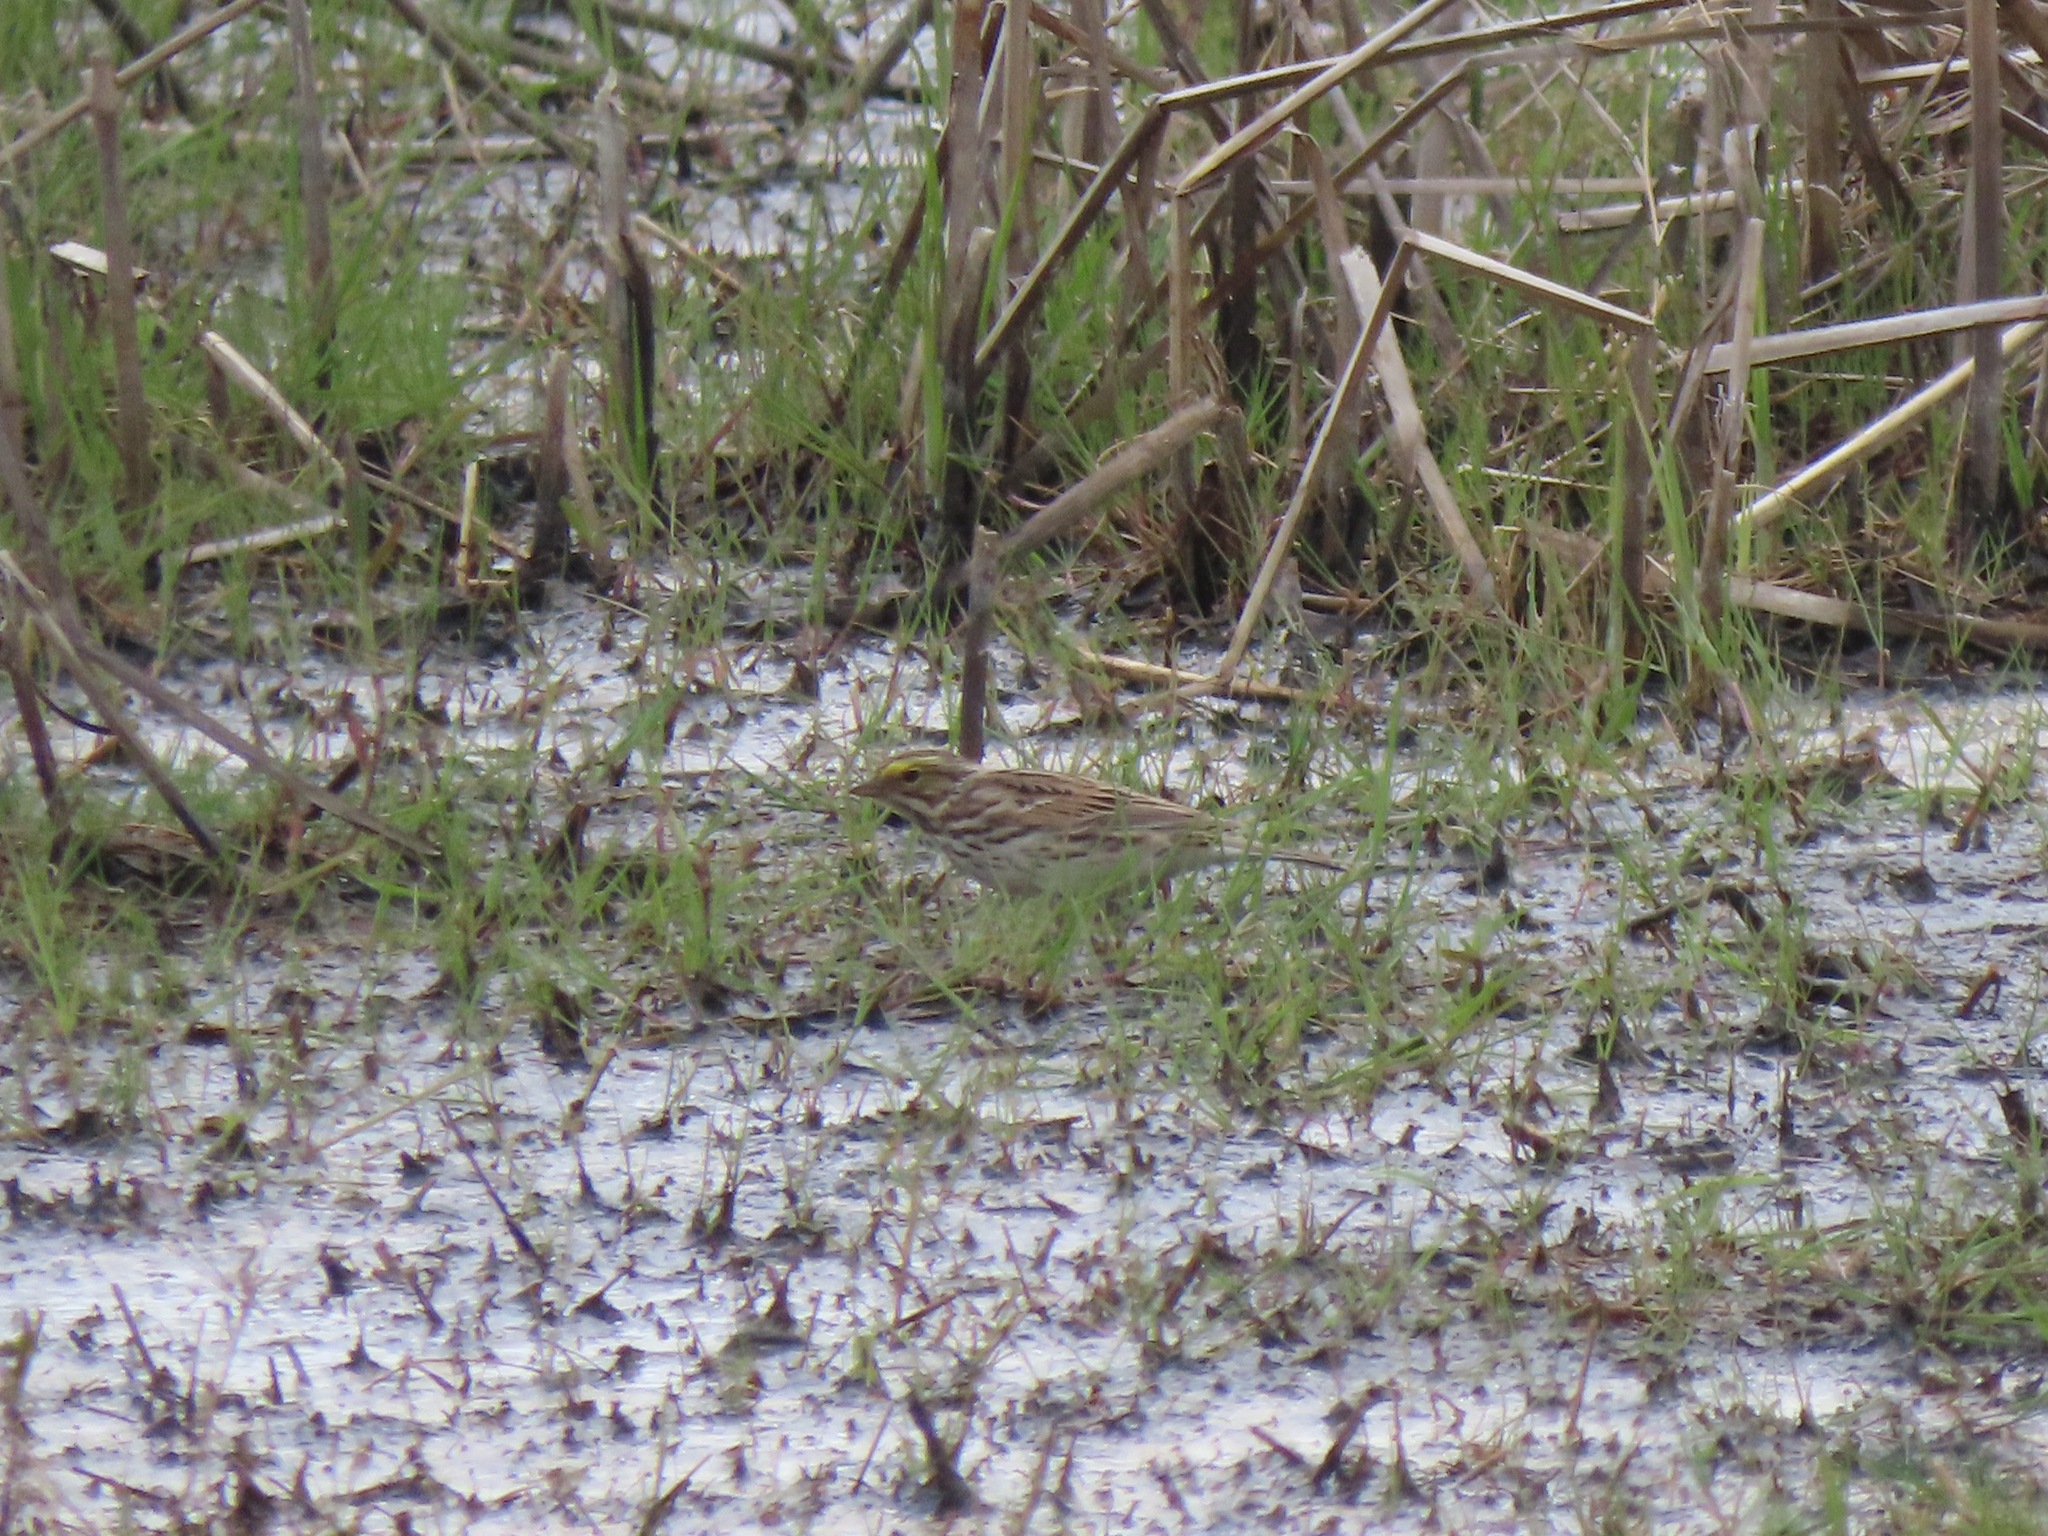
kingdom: Animalia
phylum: Chordata
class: Aves
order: Passeriformes
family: Passerellidae
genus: Passerculus
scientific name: Passerculus sandwichensis
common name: Savannah sparrow
